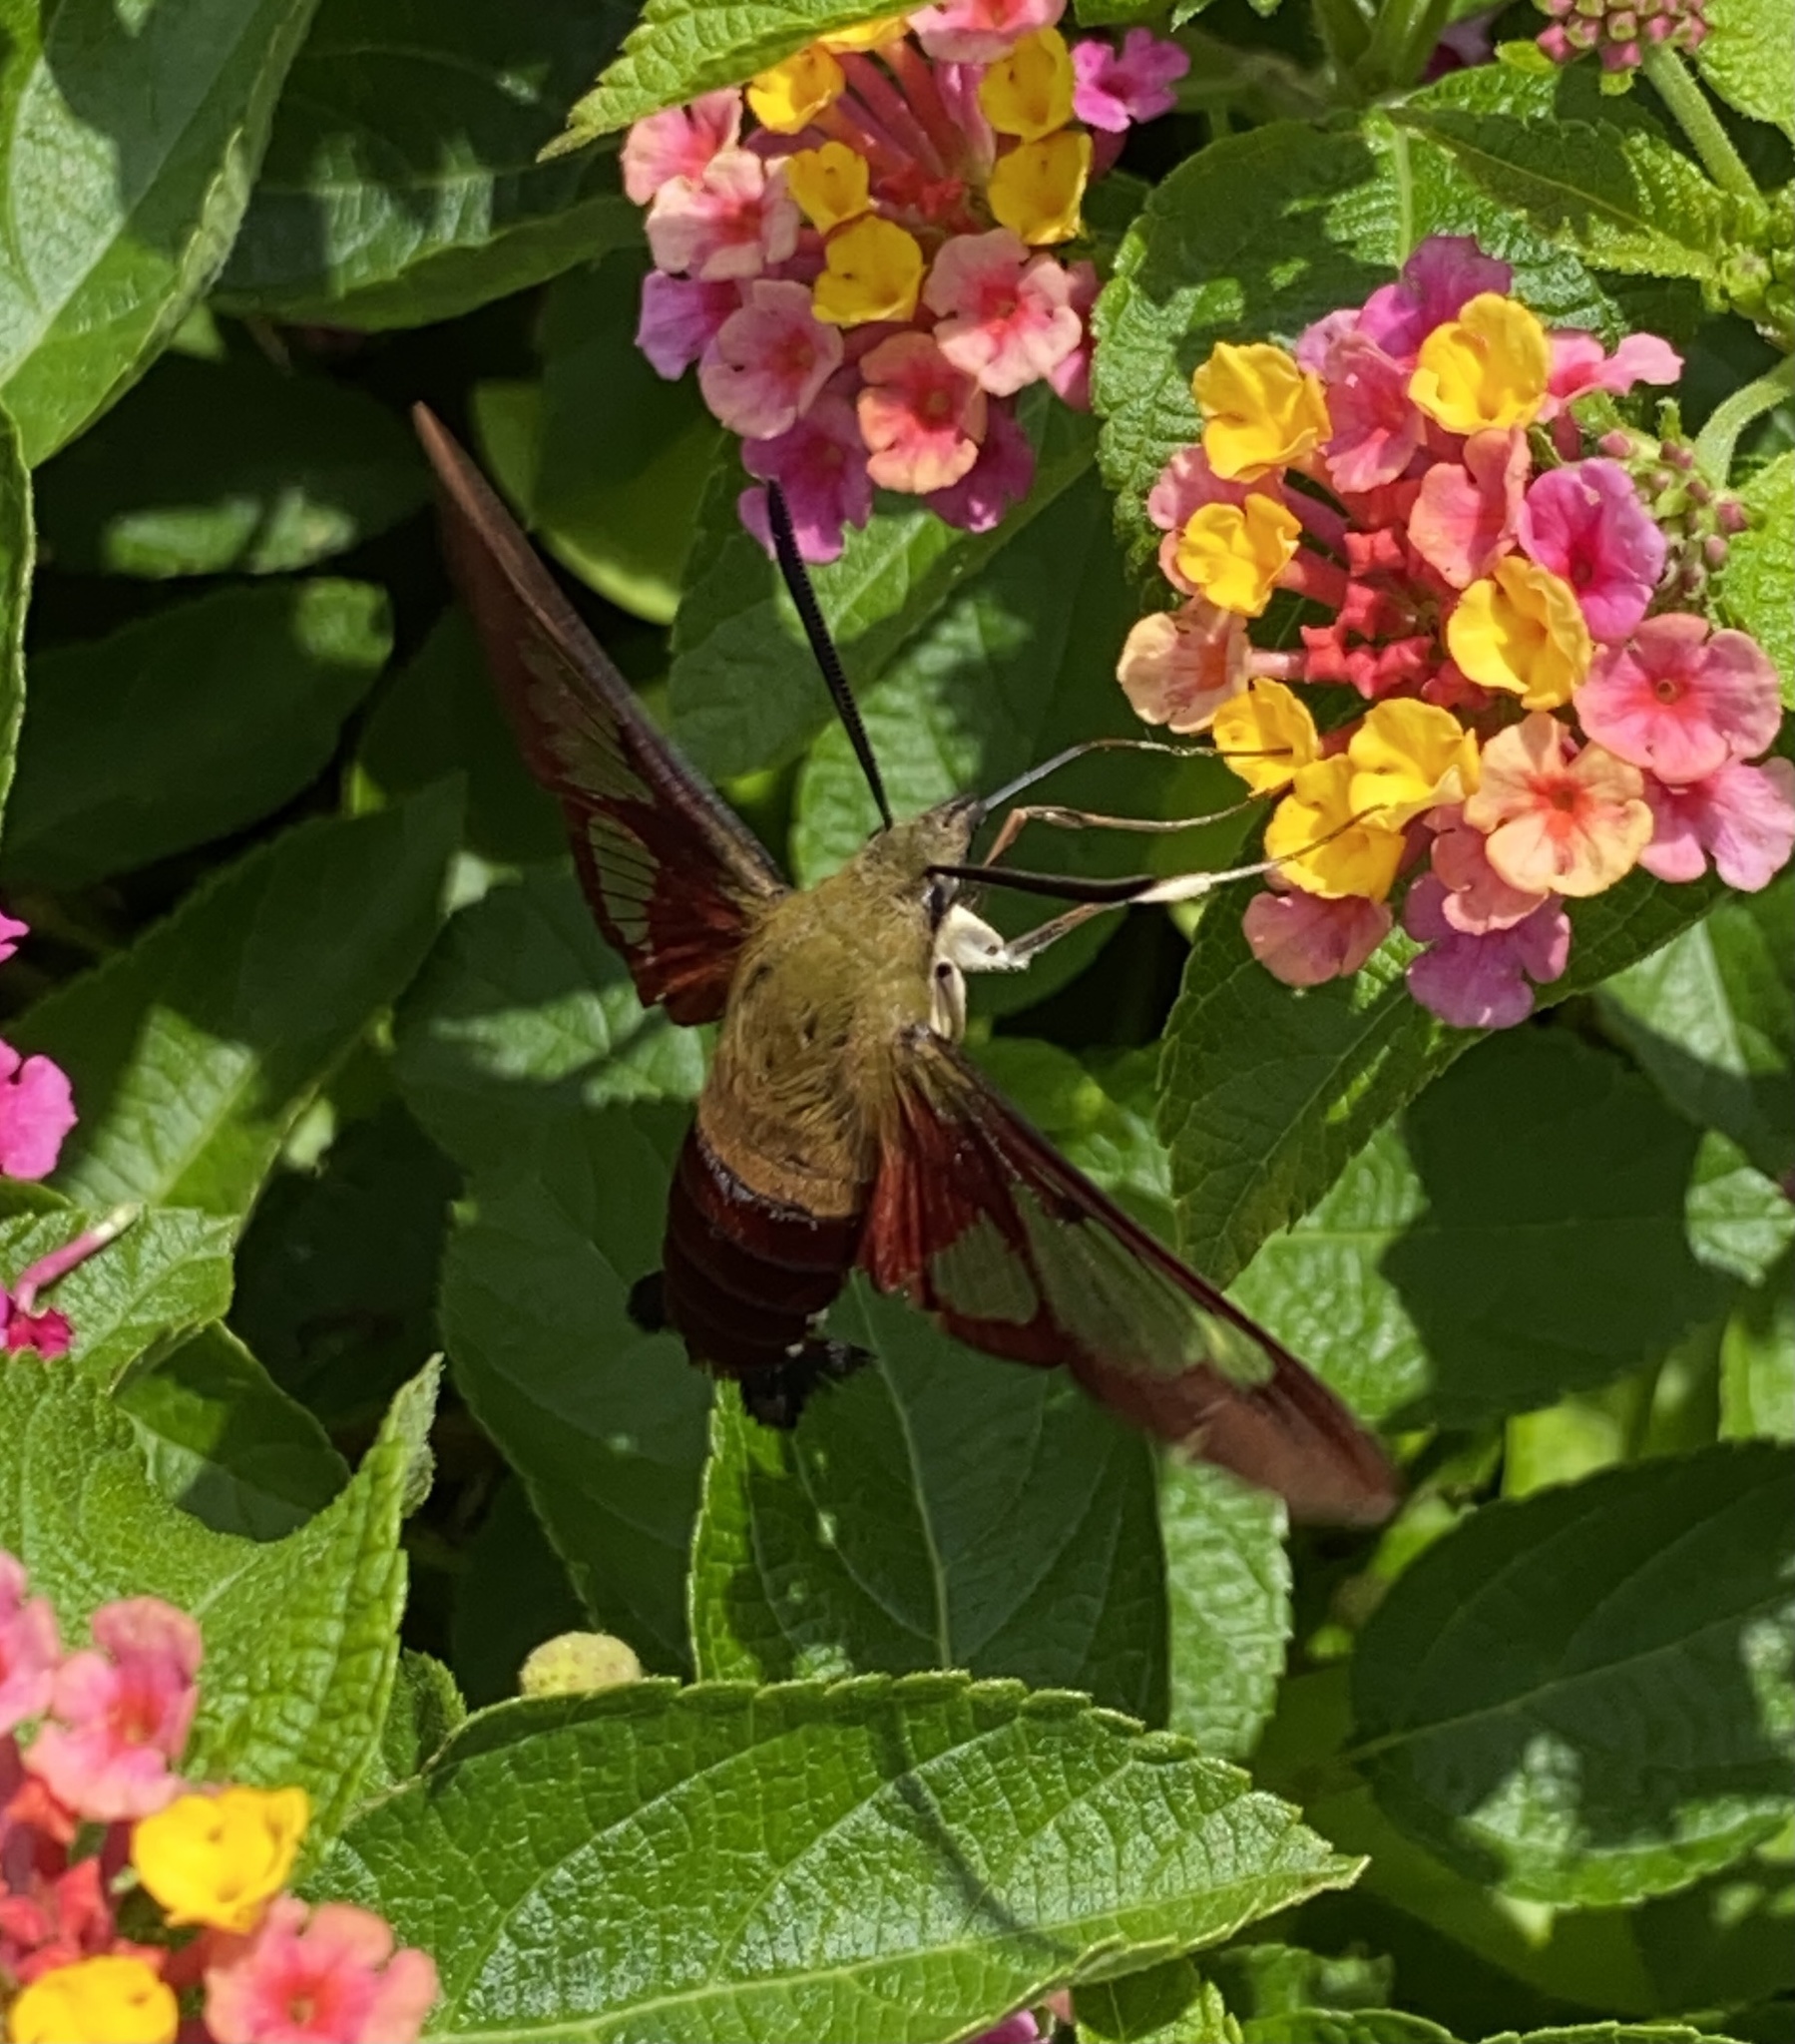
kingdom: Animalia
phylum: Arthropoda
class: Insecta
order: Lepidoptera
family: Sphingidae
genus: Hemaris
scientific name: Hemaris thysbe
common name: Common clear-wing
